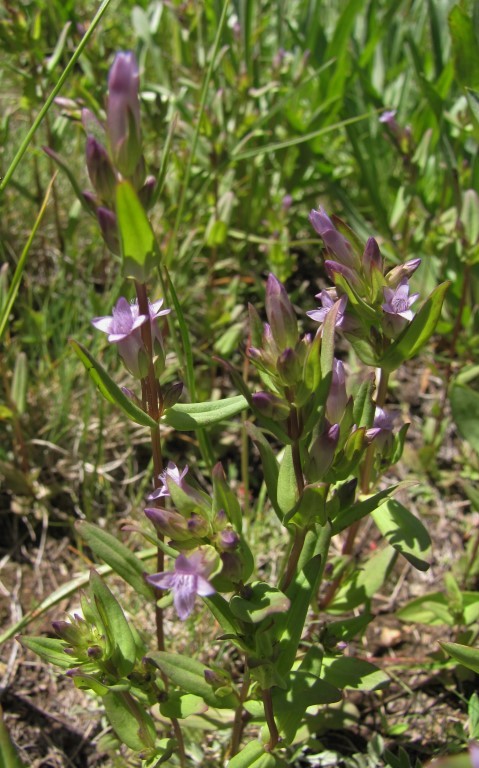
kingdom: Plantae
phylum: Tracheophyta
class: Magnoliopsida
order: Gentianales
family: Gentianaceae
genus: Gentianella
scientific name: Gentianella amarella
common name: Autumn gentian
